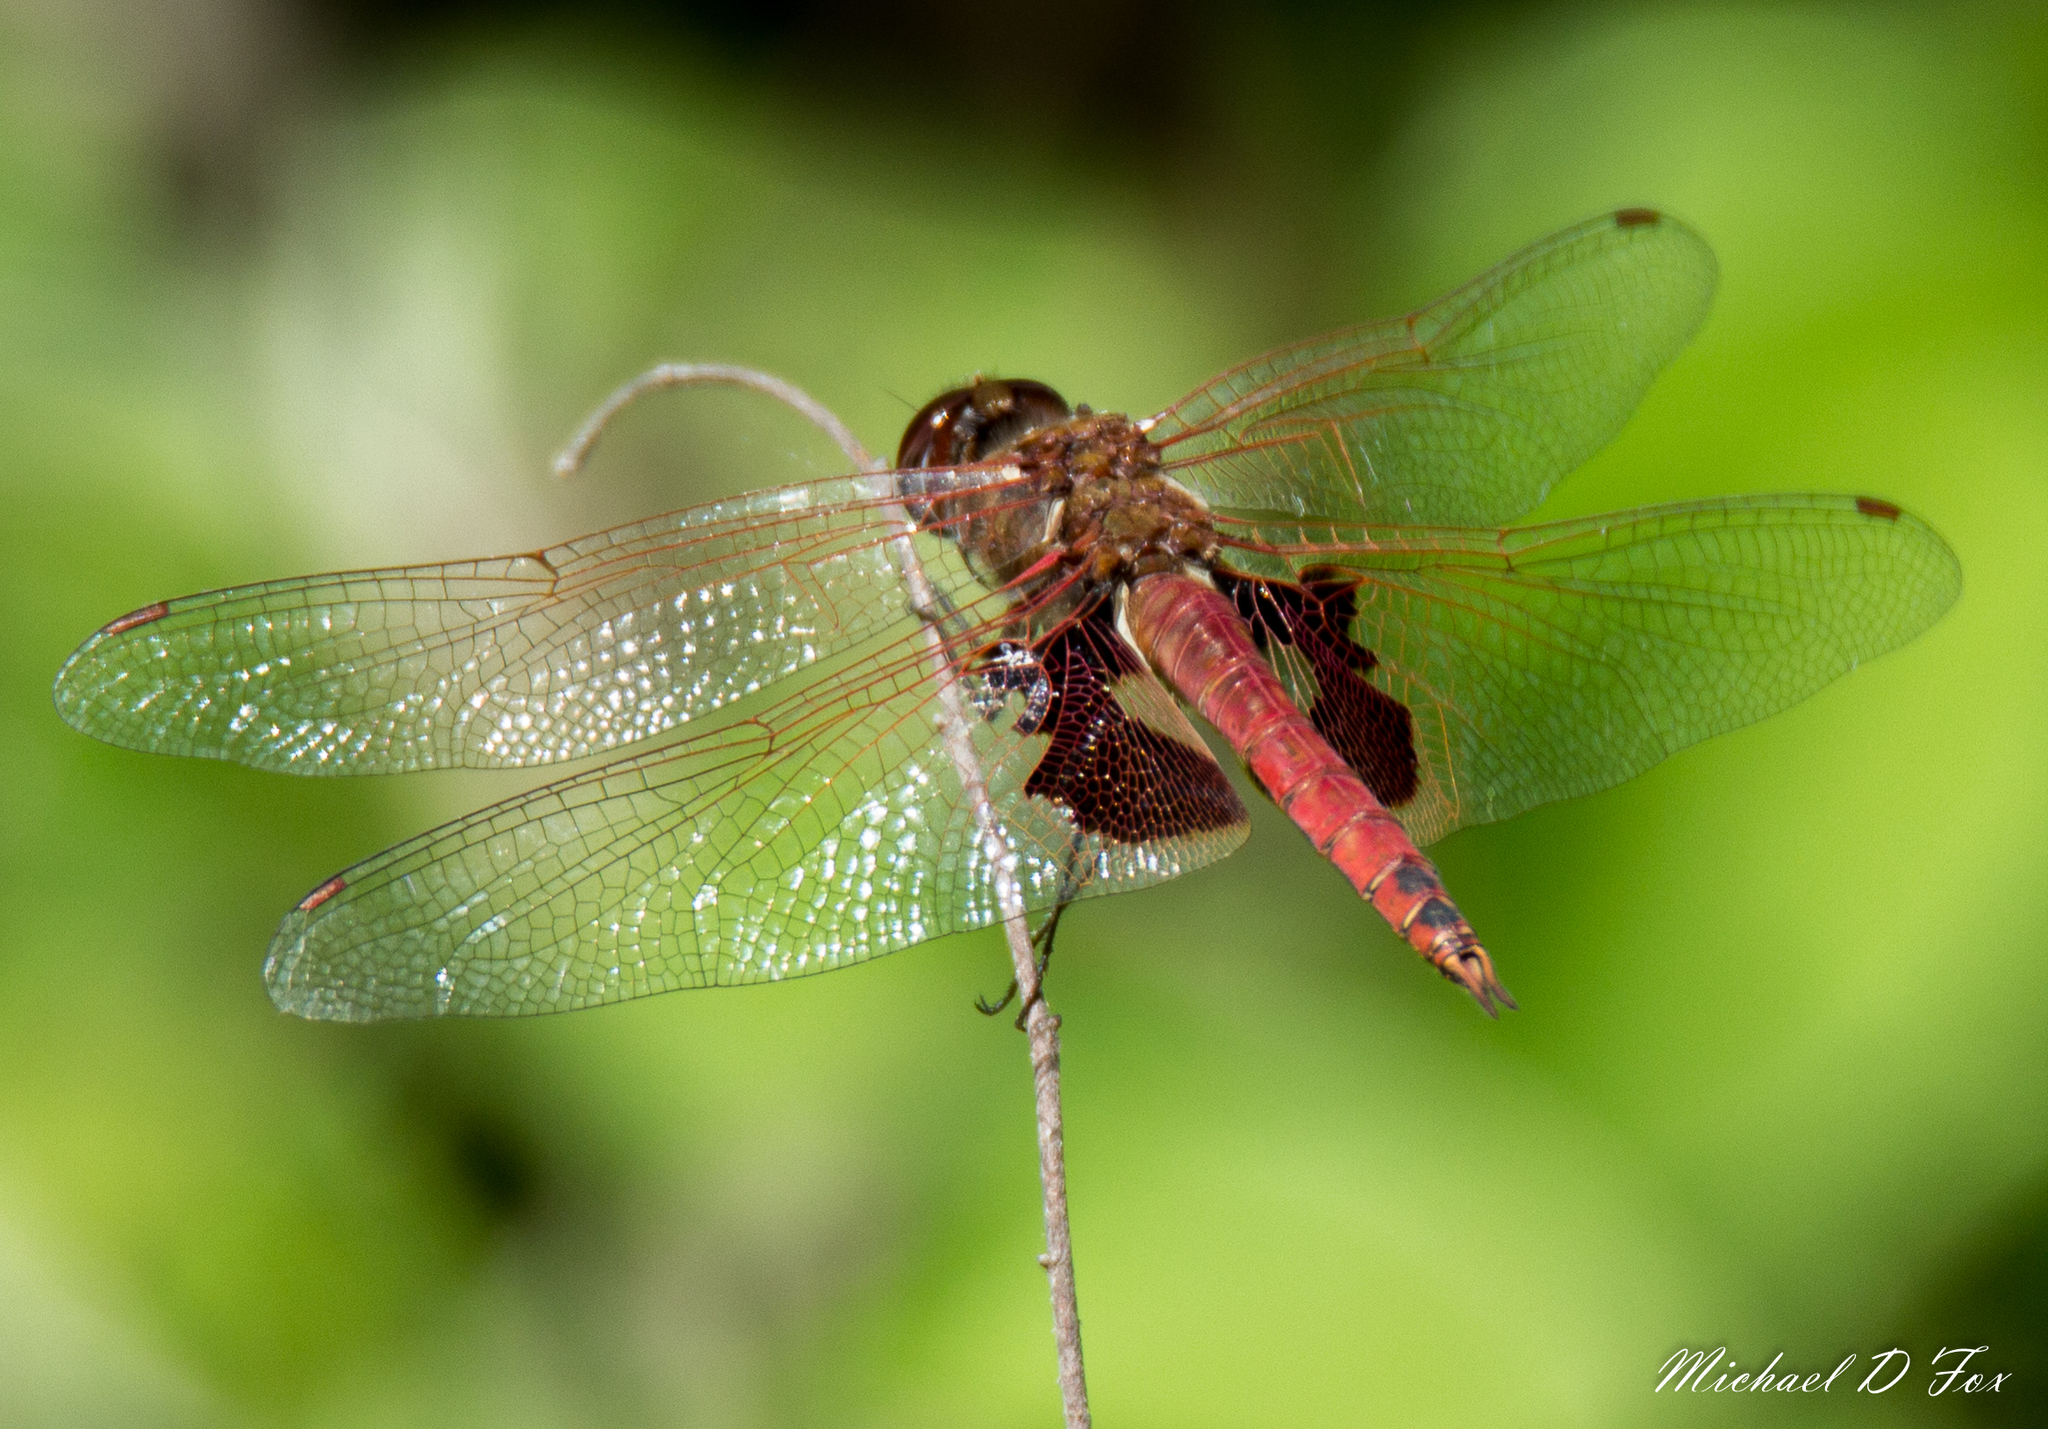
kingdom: Animalia
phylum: Arthropoda
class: Insecta
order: Odonata
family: Libellulidae
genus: Tramea
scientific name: Tramea onusta
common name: Red saddlebags
